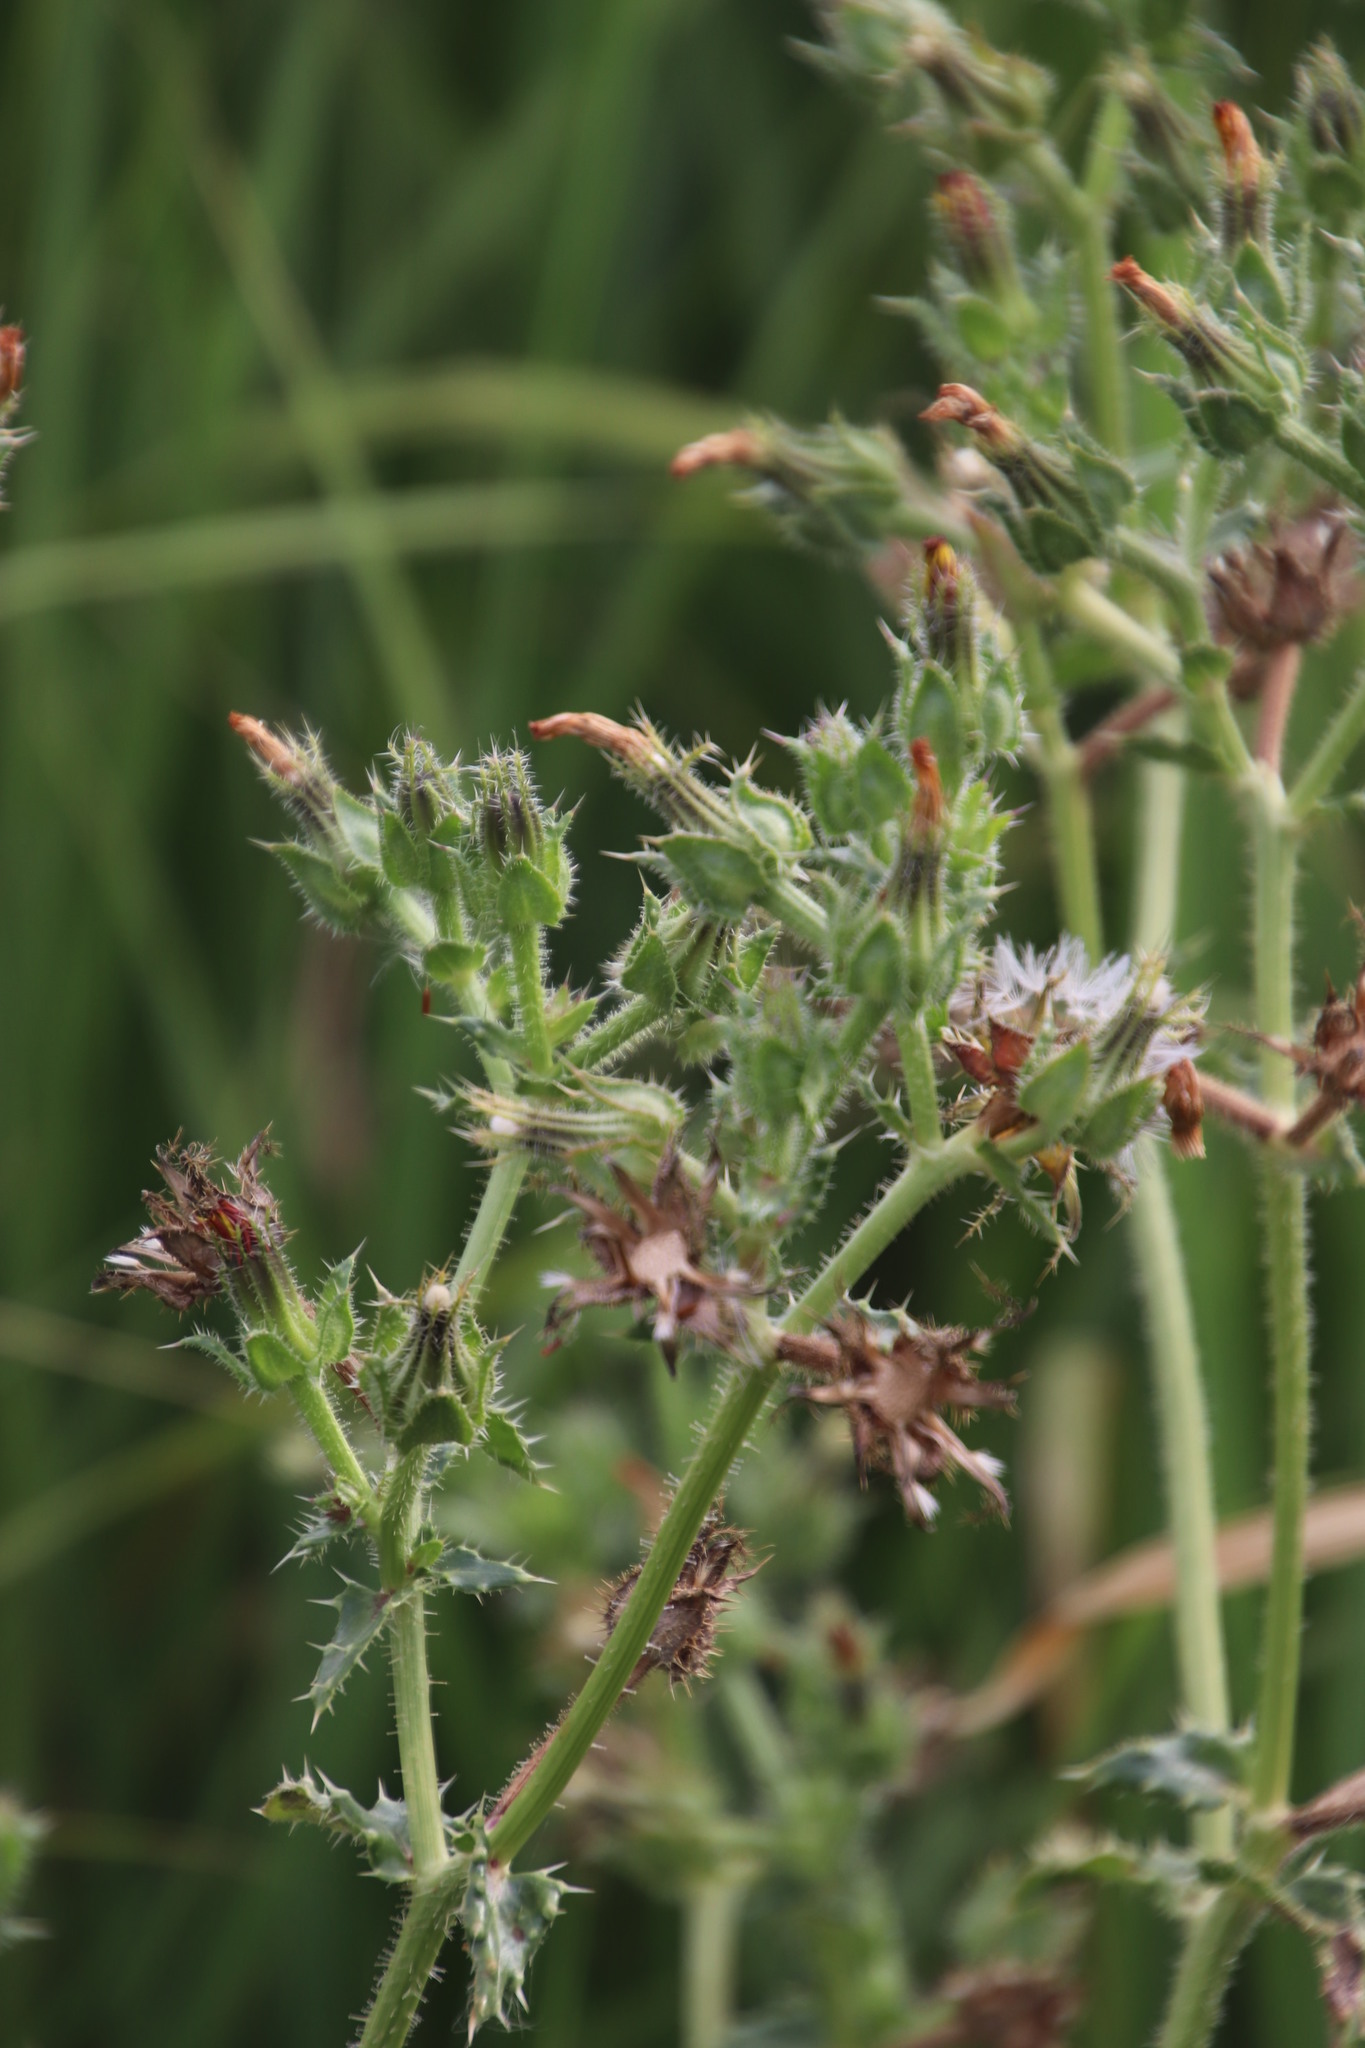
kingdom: Plantae
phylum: Tracheophyta
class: Magnoliopsida
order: Asterales
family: Asteraceae
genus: Helminthotheca
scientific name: Helminthotheca echioides
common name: Ox-tongue
